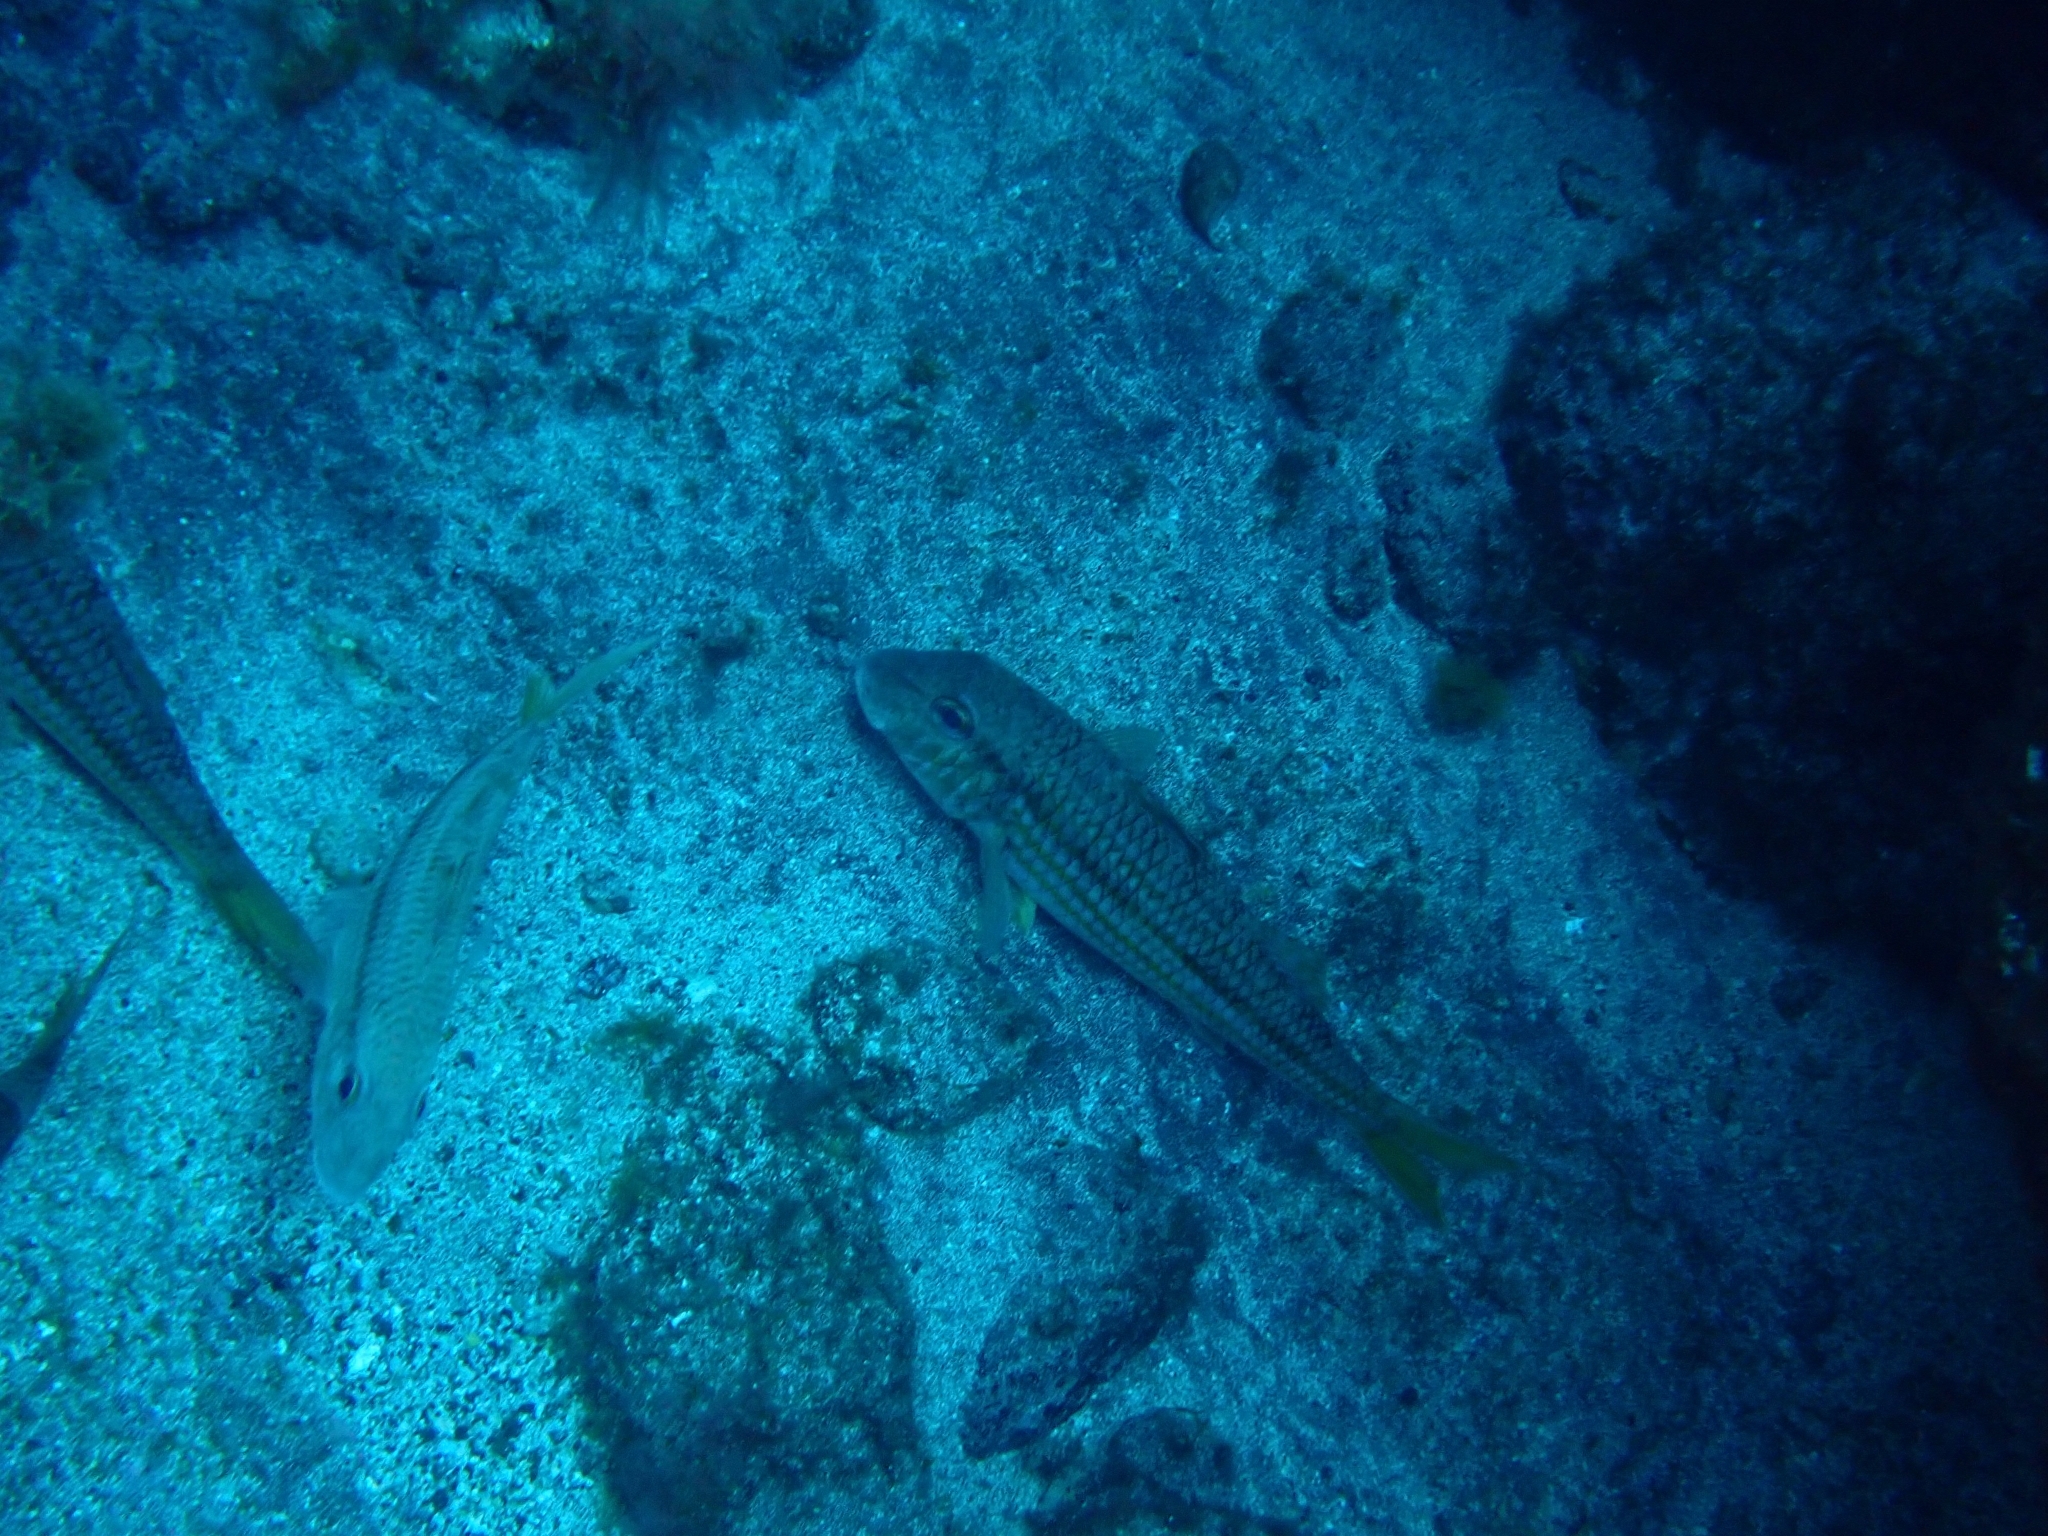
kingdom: Animalia
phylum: Chordata
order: Perciformes
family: Mullidae
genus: Mullus
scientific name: Mullus surmuletus
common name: Red mullet
